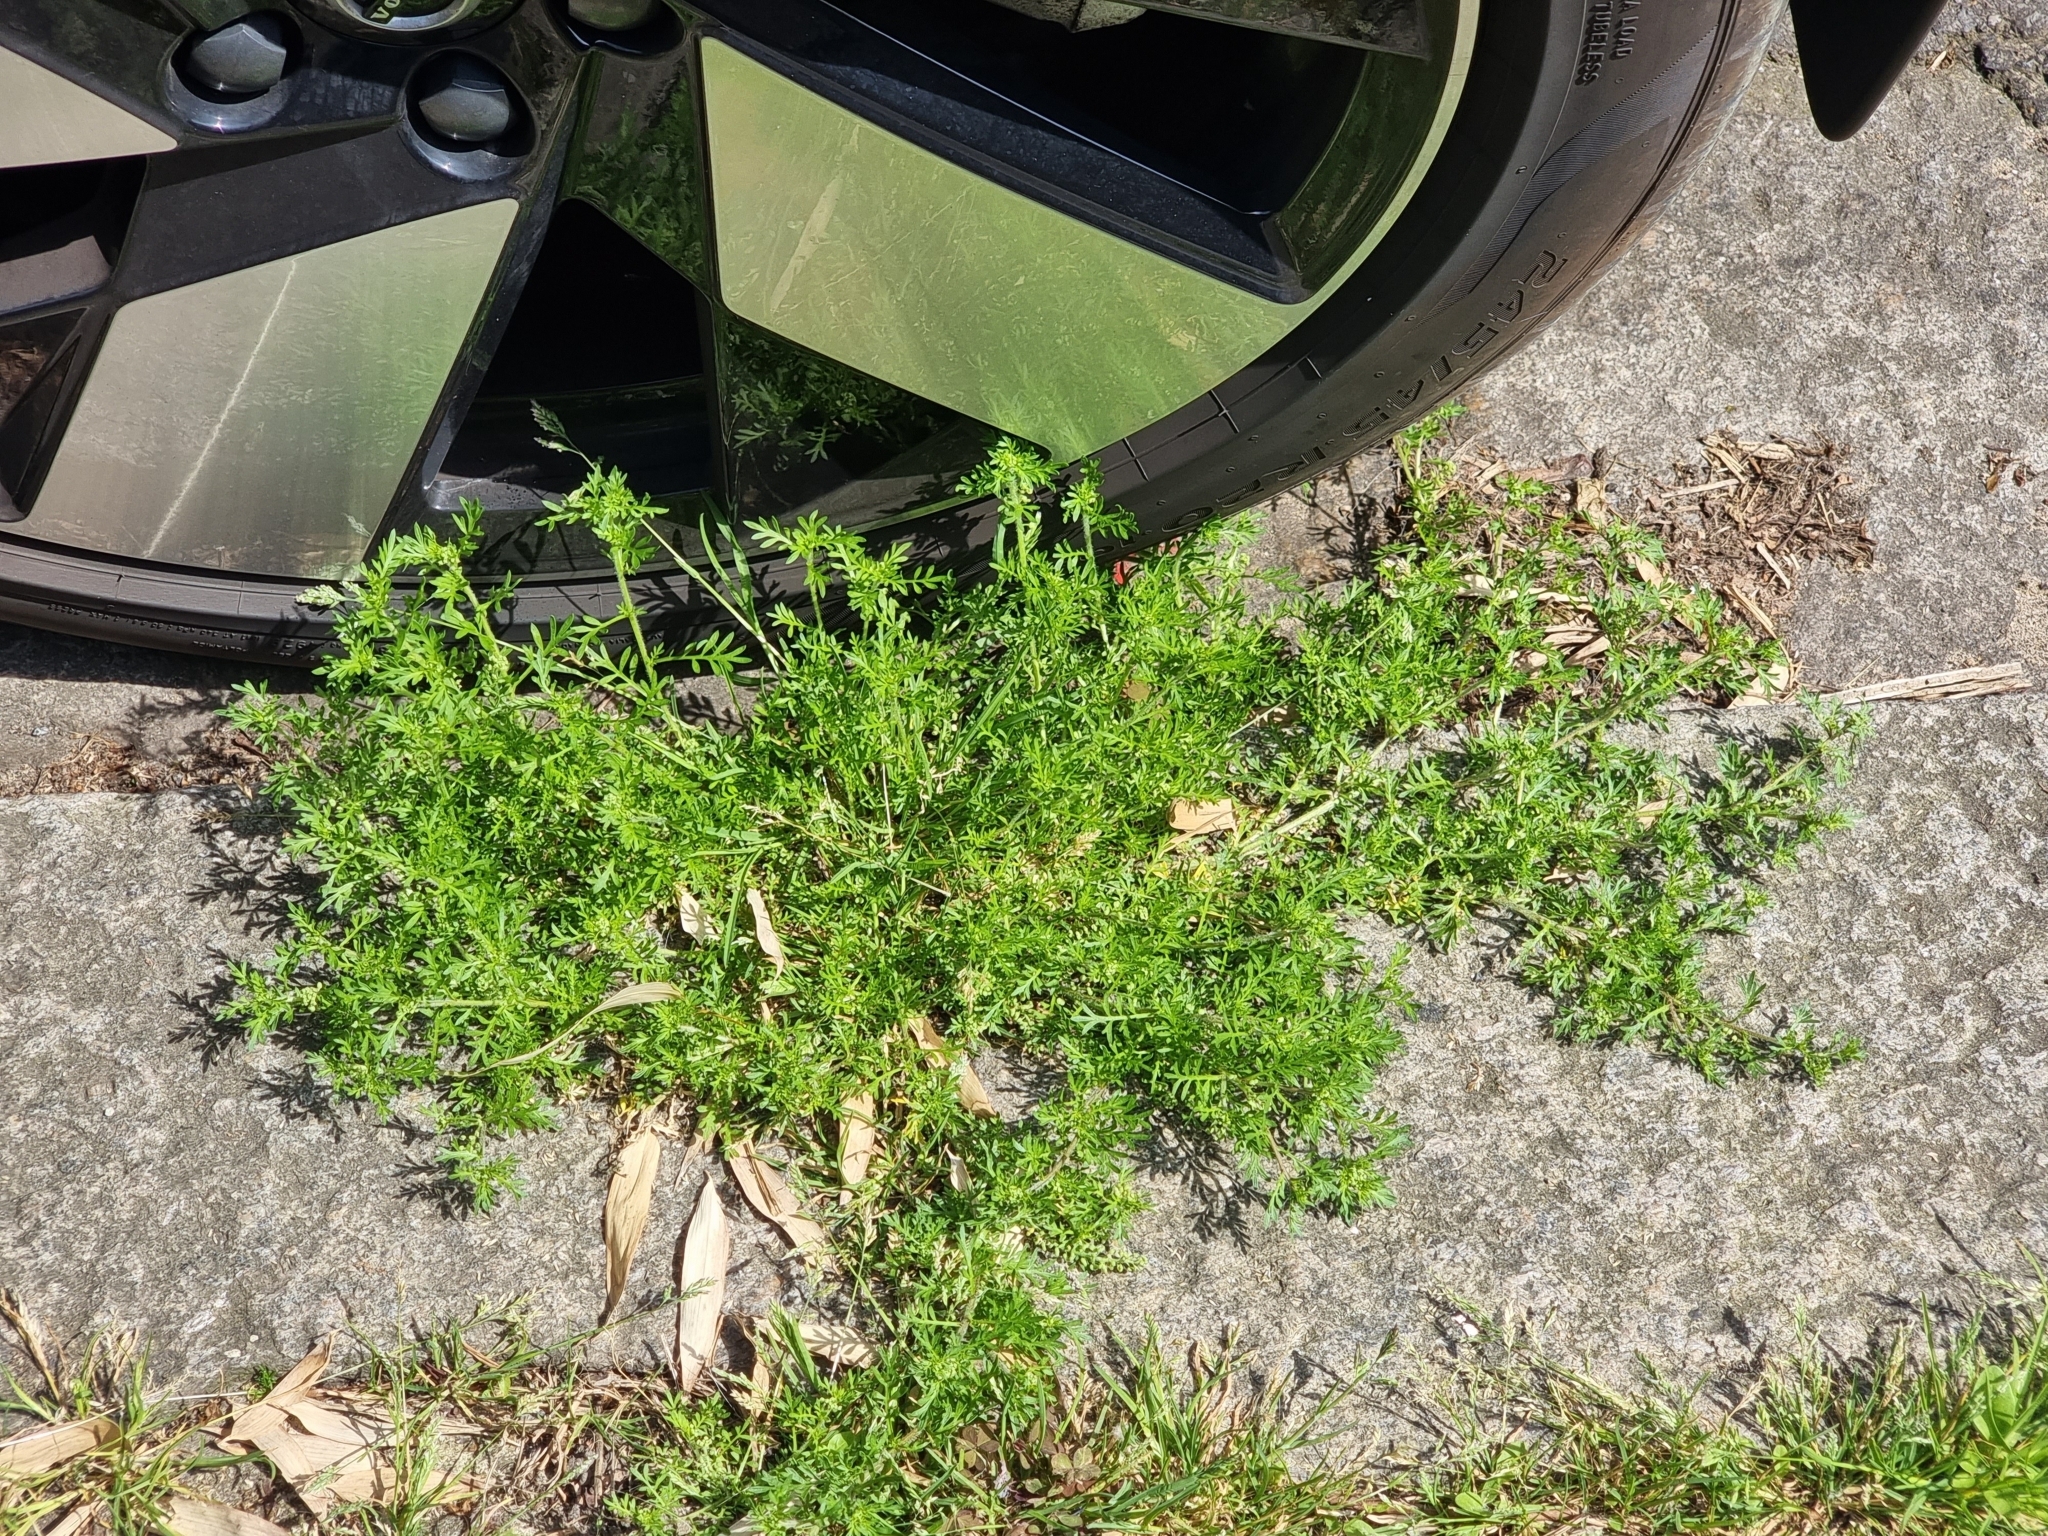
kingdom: Plantae
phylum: Tracheophyta
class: Magnoliopsida
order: Brassicales
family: Brassicaceae
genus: Lepidium
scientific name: Lepidium didymum
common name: Lesser swinecress
